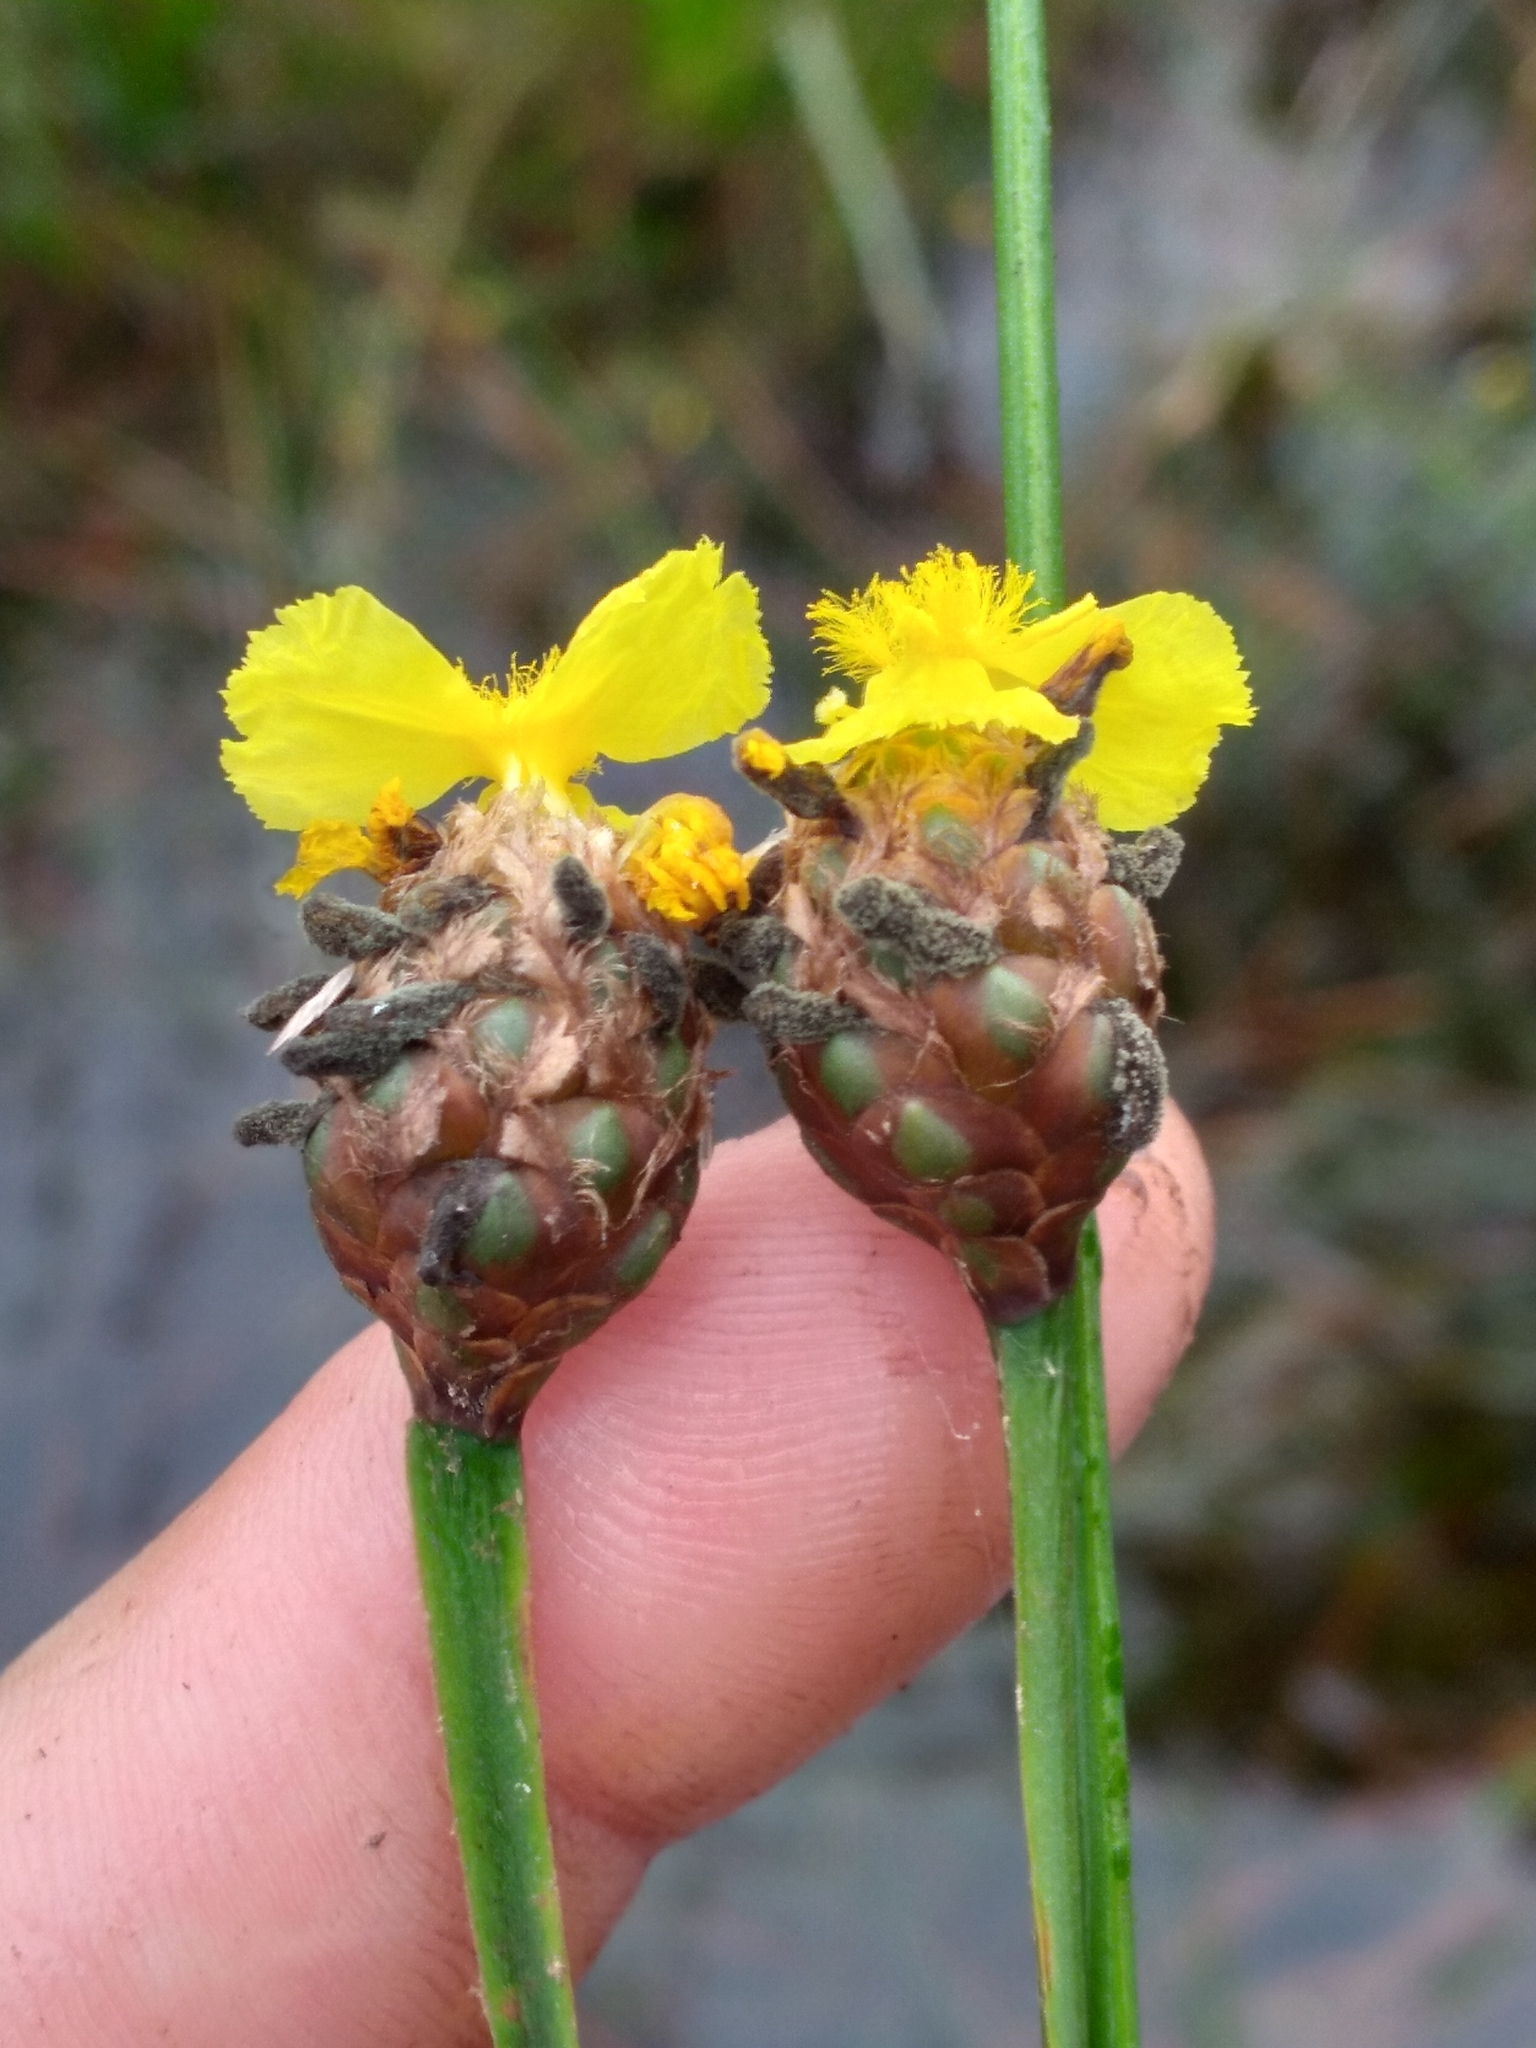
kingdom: Plantae
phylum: Tracheophyta
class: Liliopsida
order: Poales
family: Xyridaceae
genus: Xyris
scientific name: Xyris fimbriata
